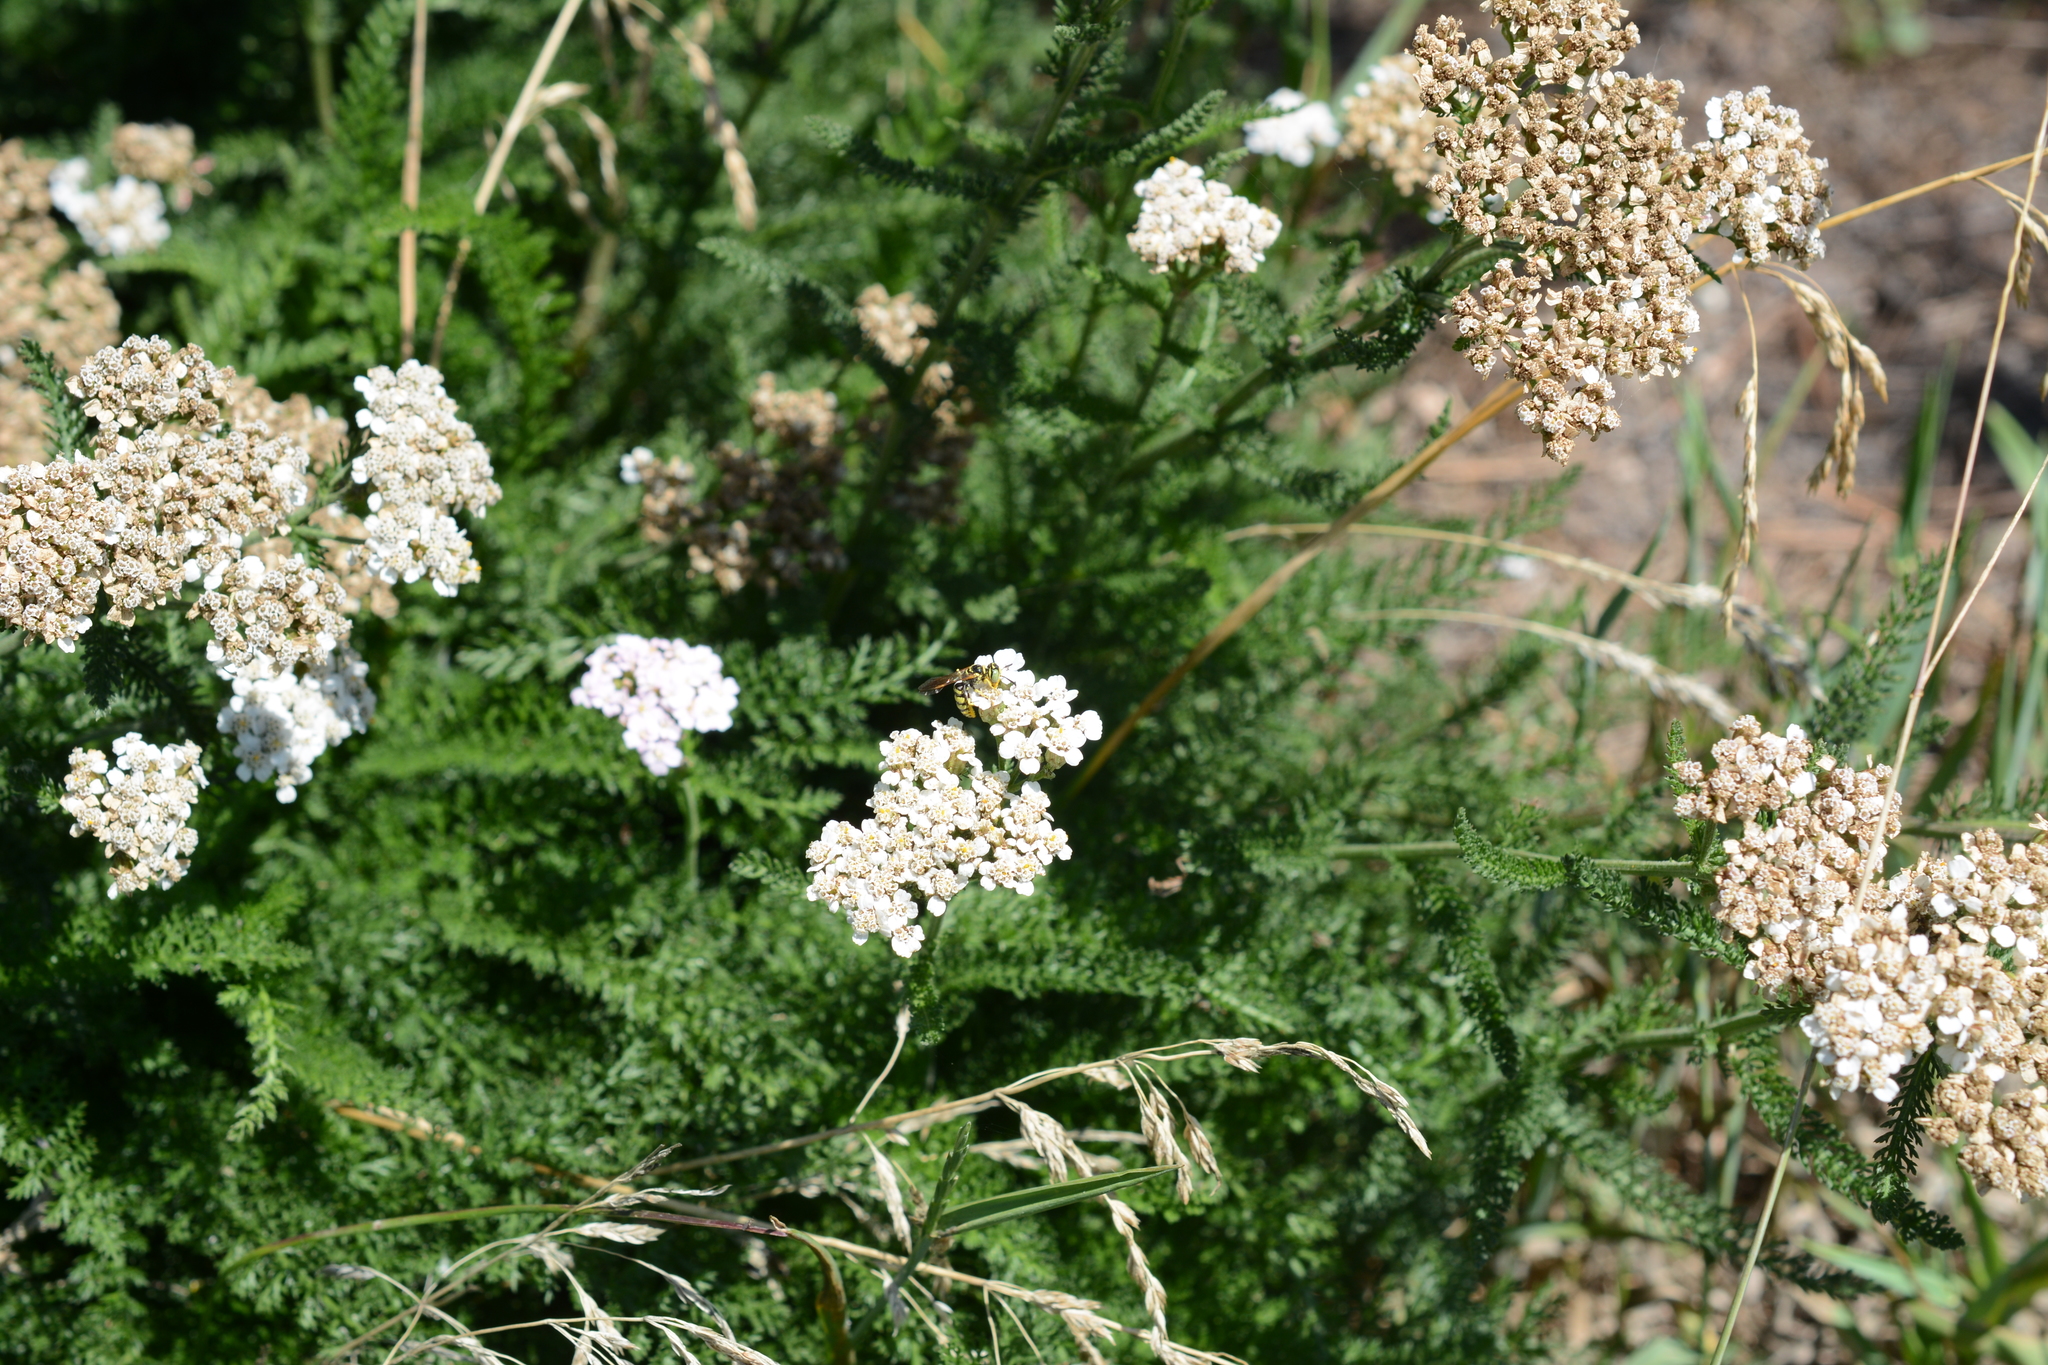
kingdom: Plantae
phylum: Tracheophyta
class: Magnoliopsida
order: Asterales
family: Asteraceae
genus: Achillea
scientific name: Achillea millefolium
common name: Yarrow
